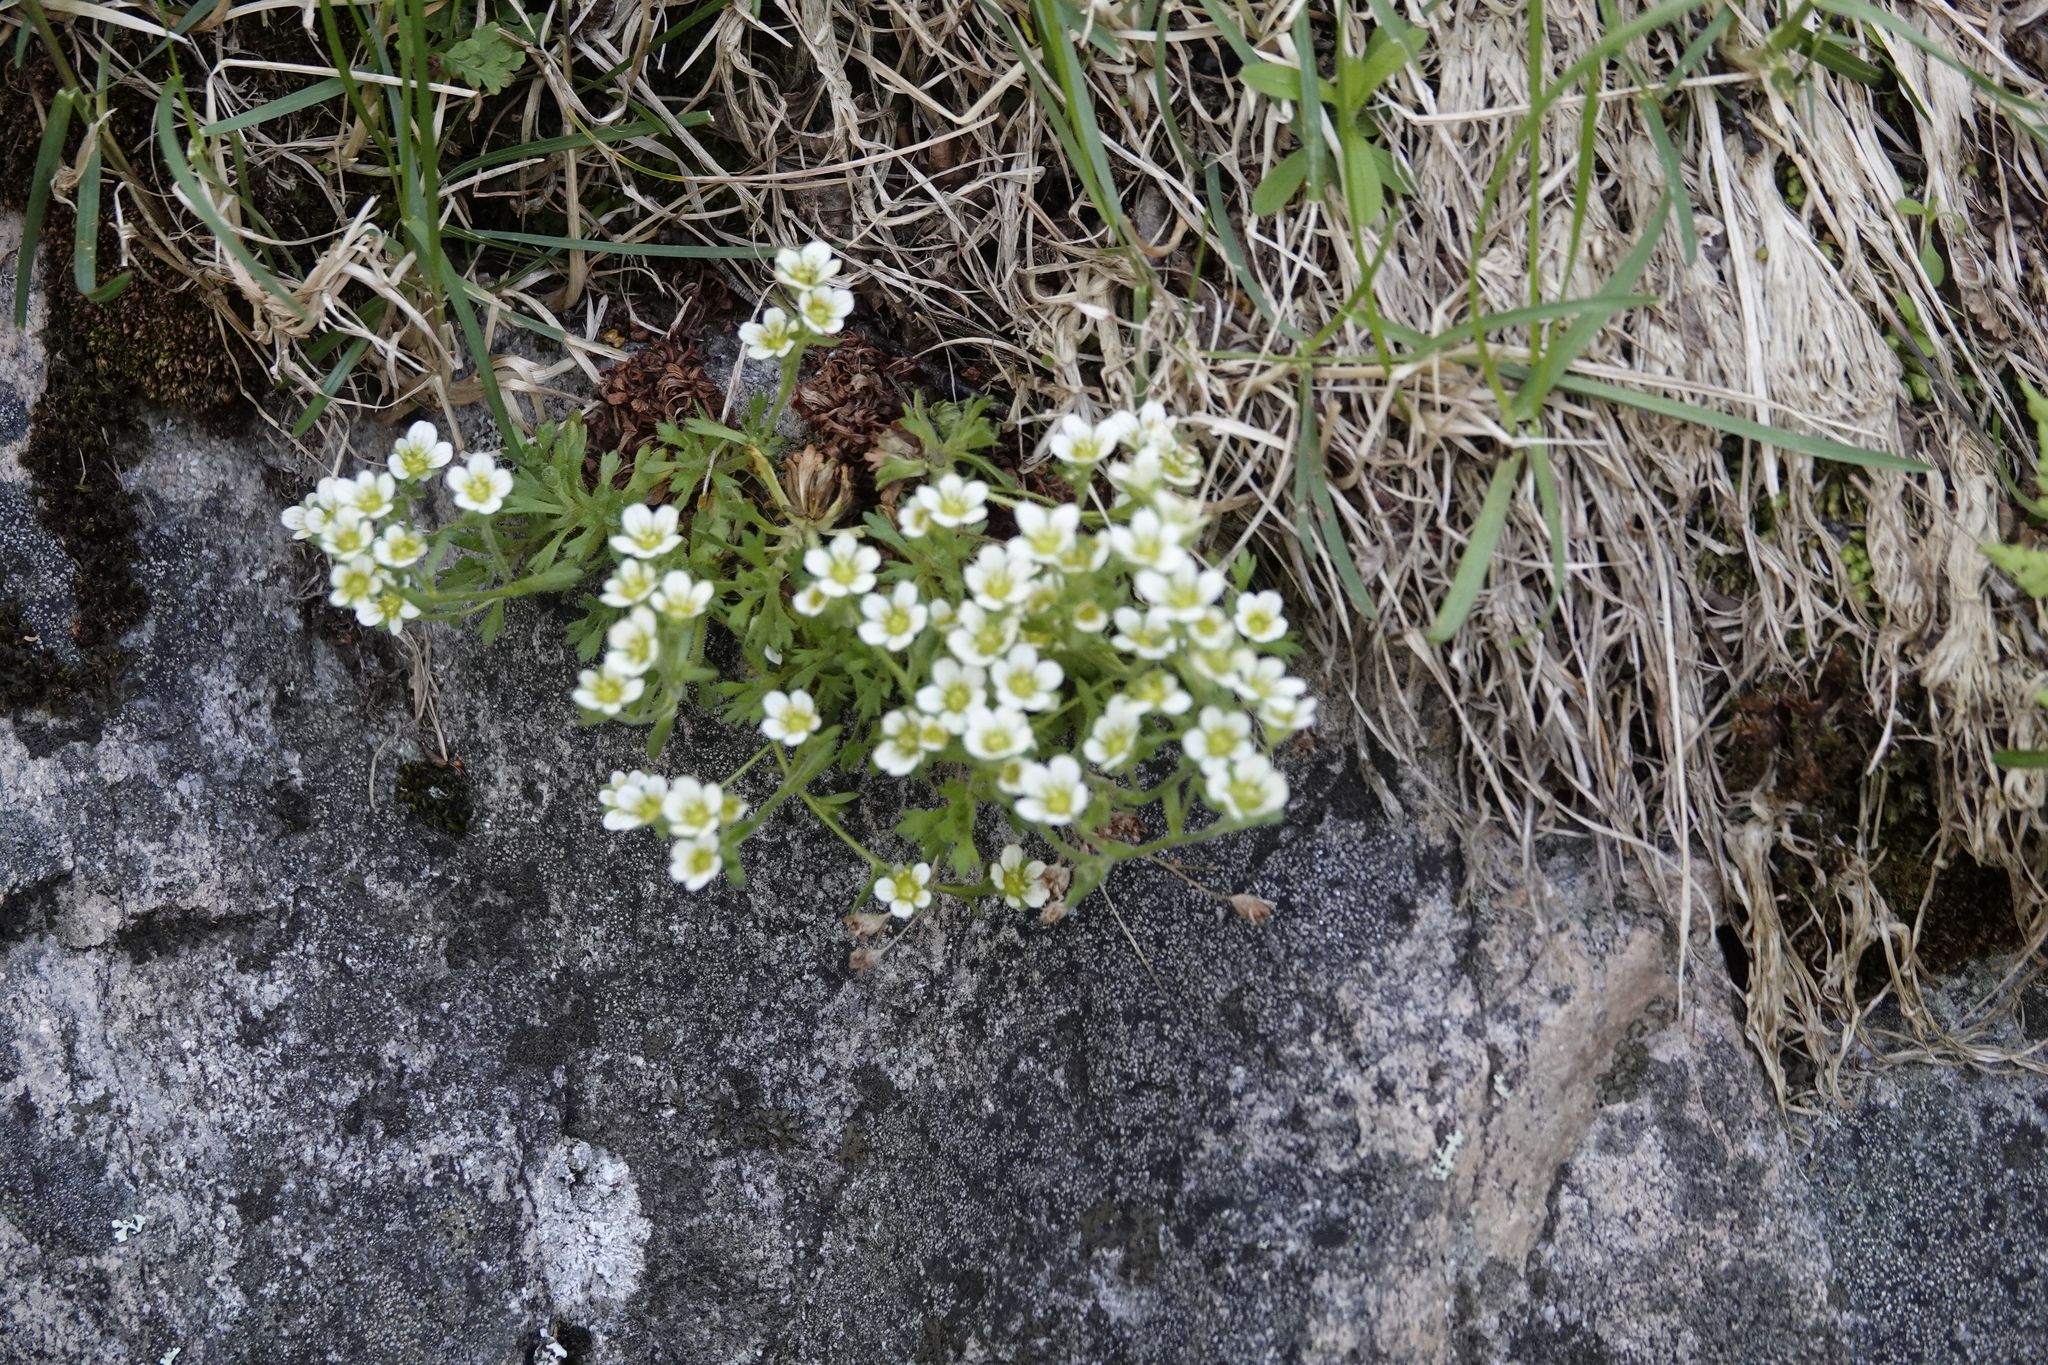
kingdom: Plantae
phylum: Tracheophyta
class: Magnoliopsida
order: Saxifragales
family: Saxifragaceae
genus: Saxifraga
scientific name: Saxifraga magellanica
